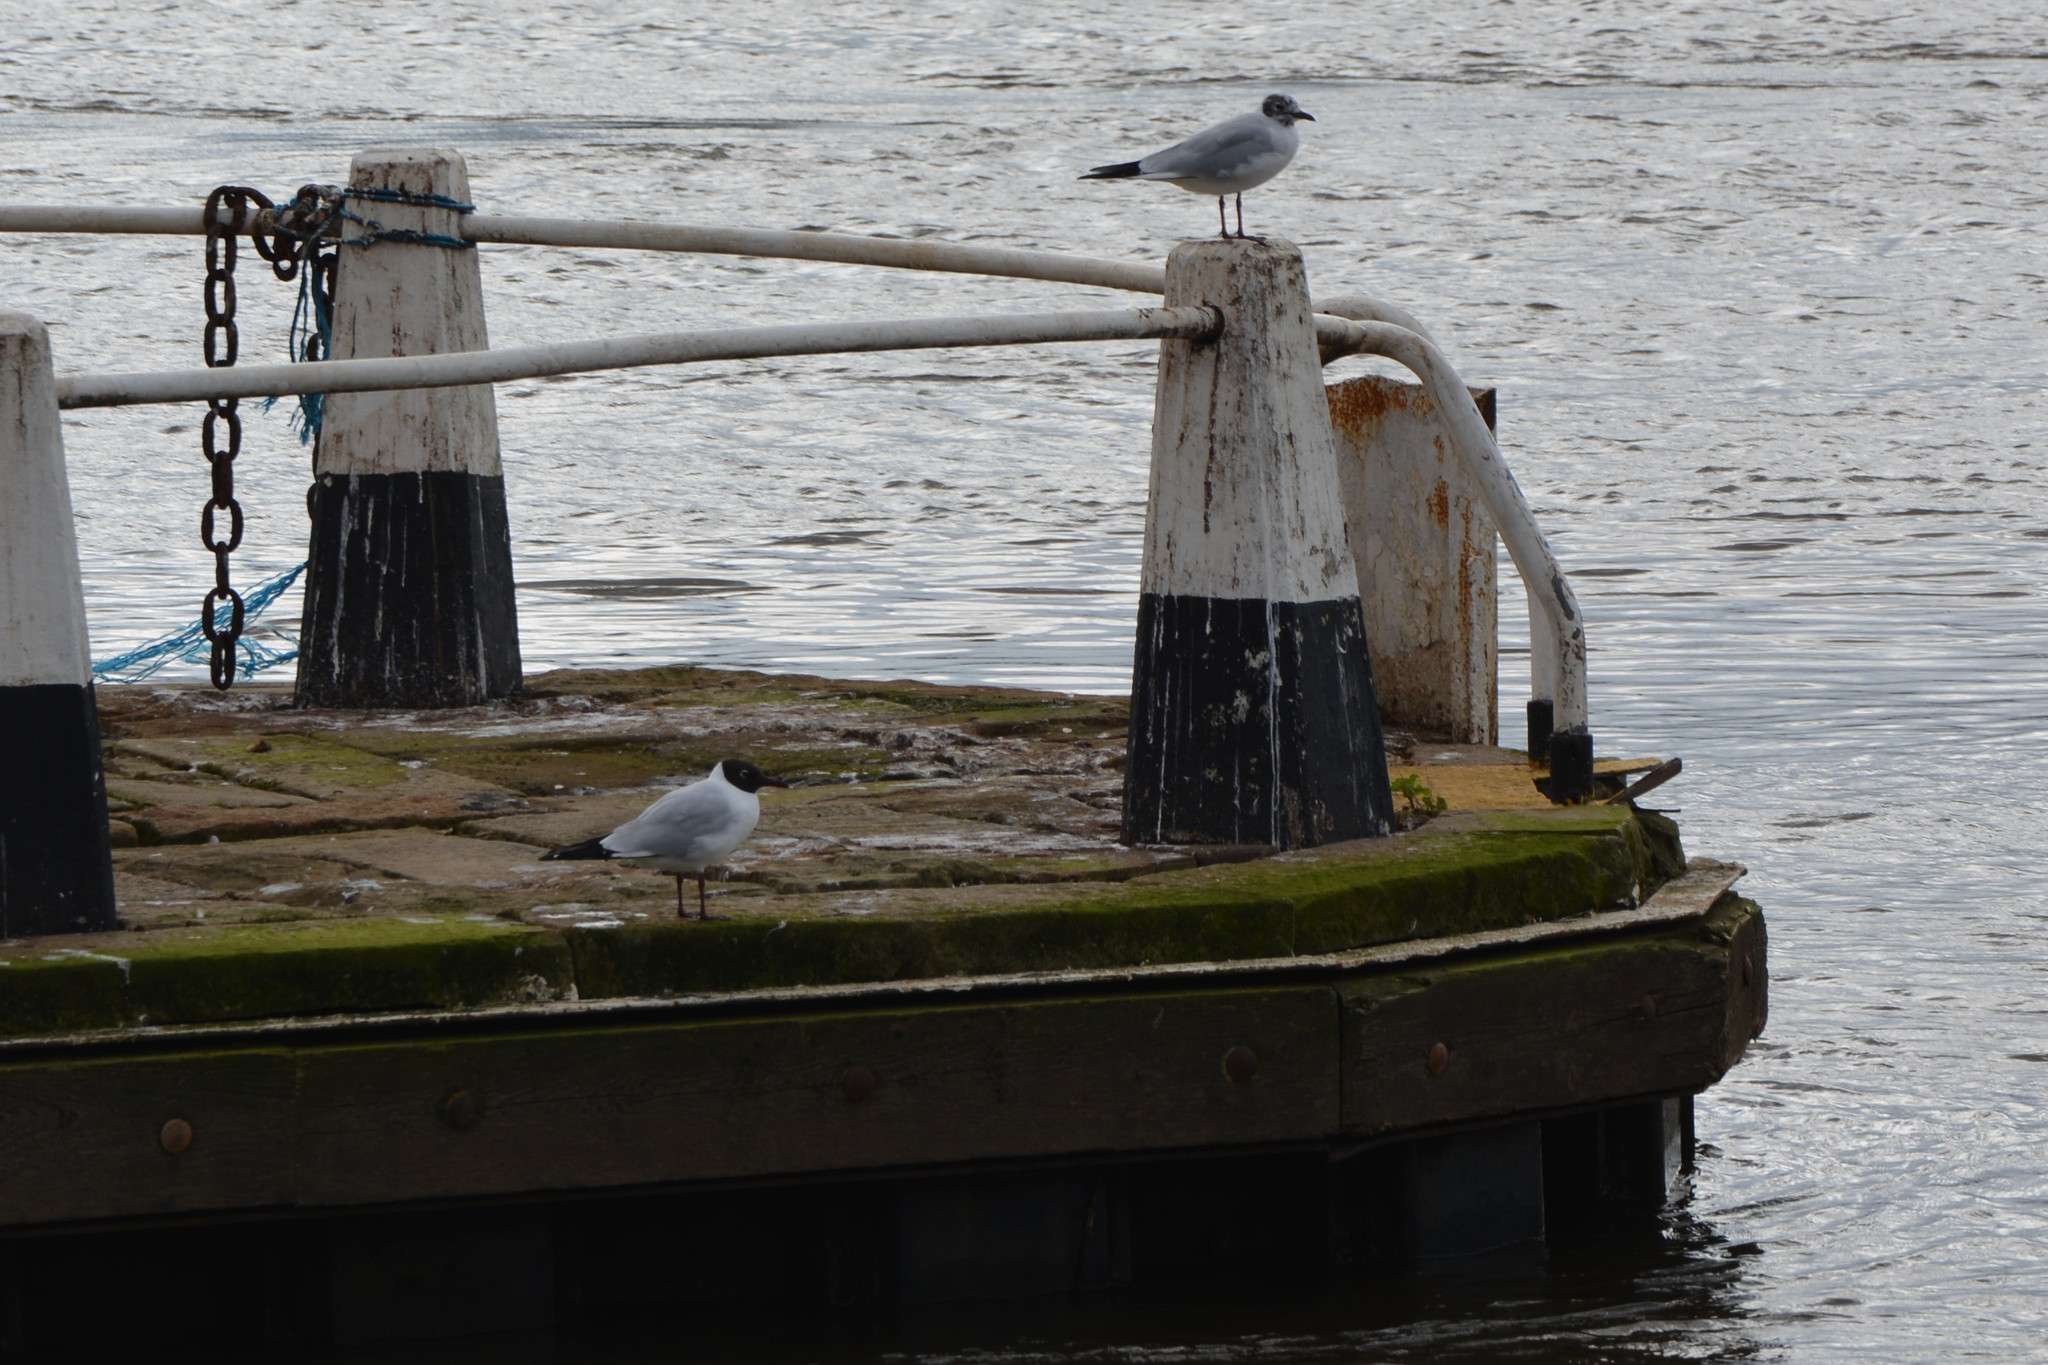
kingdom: Animalia
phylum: Chordata
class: Aves
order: Charadriiformes
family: Laridae
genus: Chroicocephalus
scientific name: Chroicocephalus ridibundus
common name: Black-headed gull
